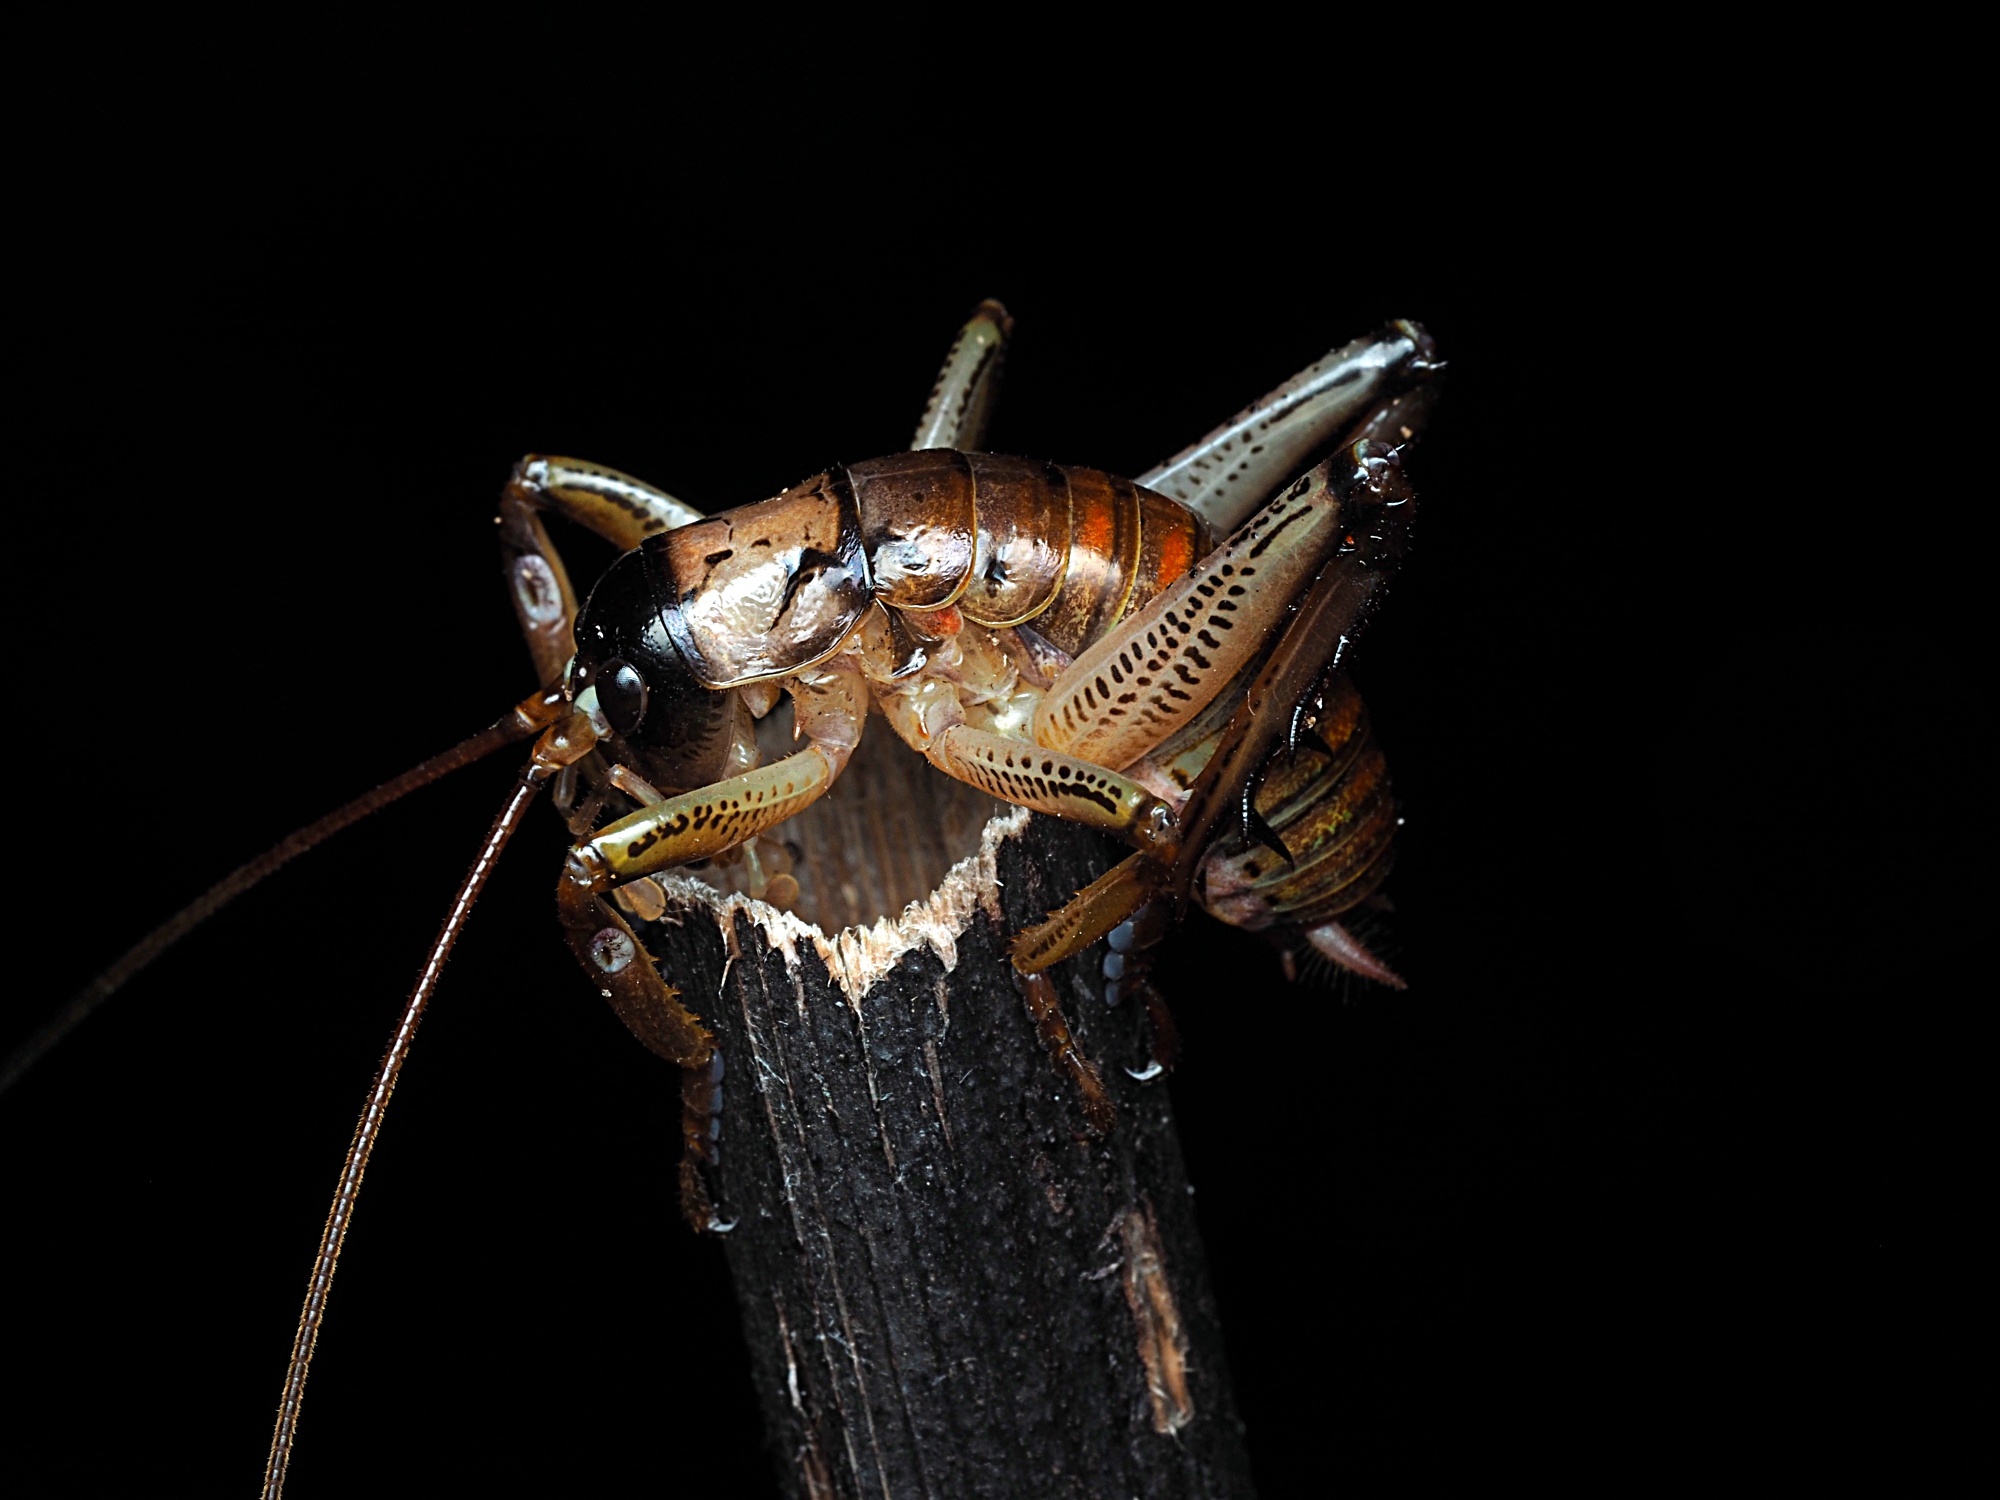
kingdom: Animalia
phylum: Arthropoda
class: Insecta
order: Orthoptera
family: Anostostomatidae
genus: Hemideina
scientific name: Hemideina thoracica
